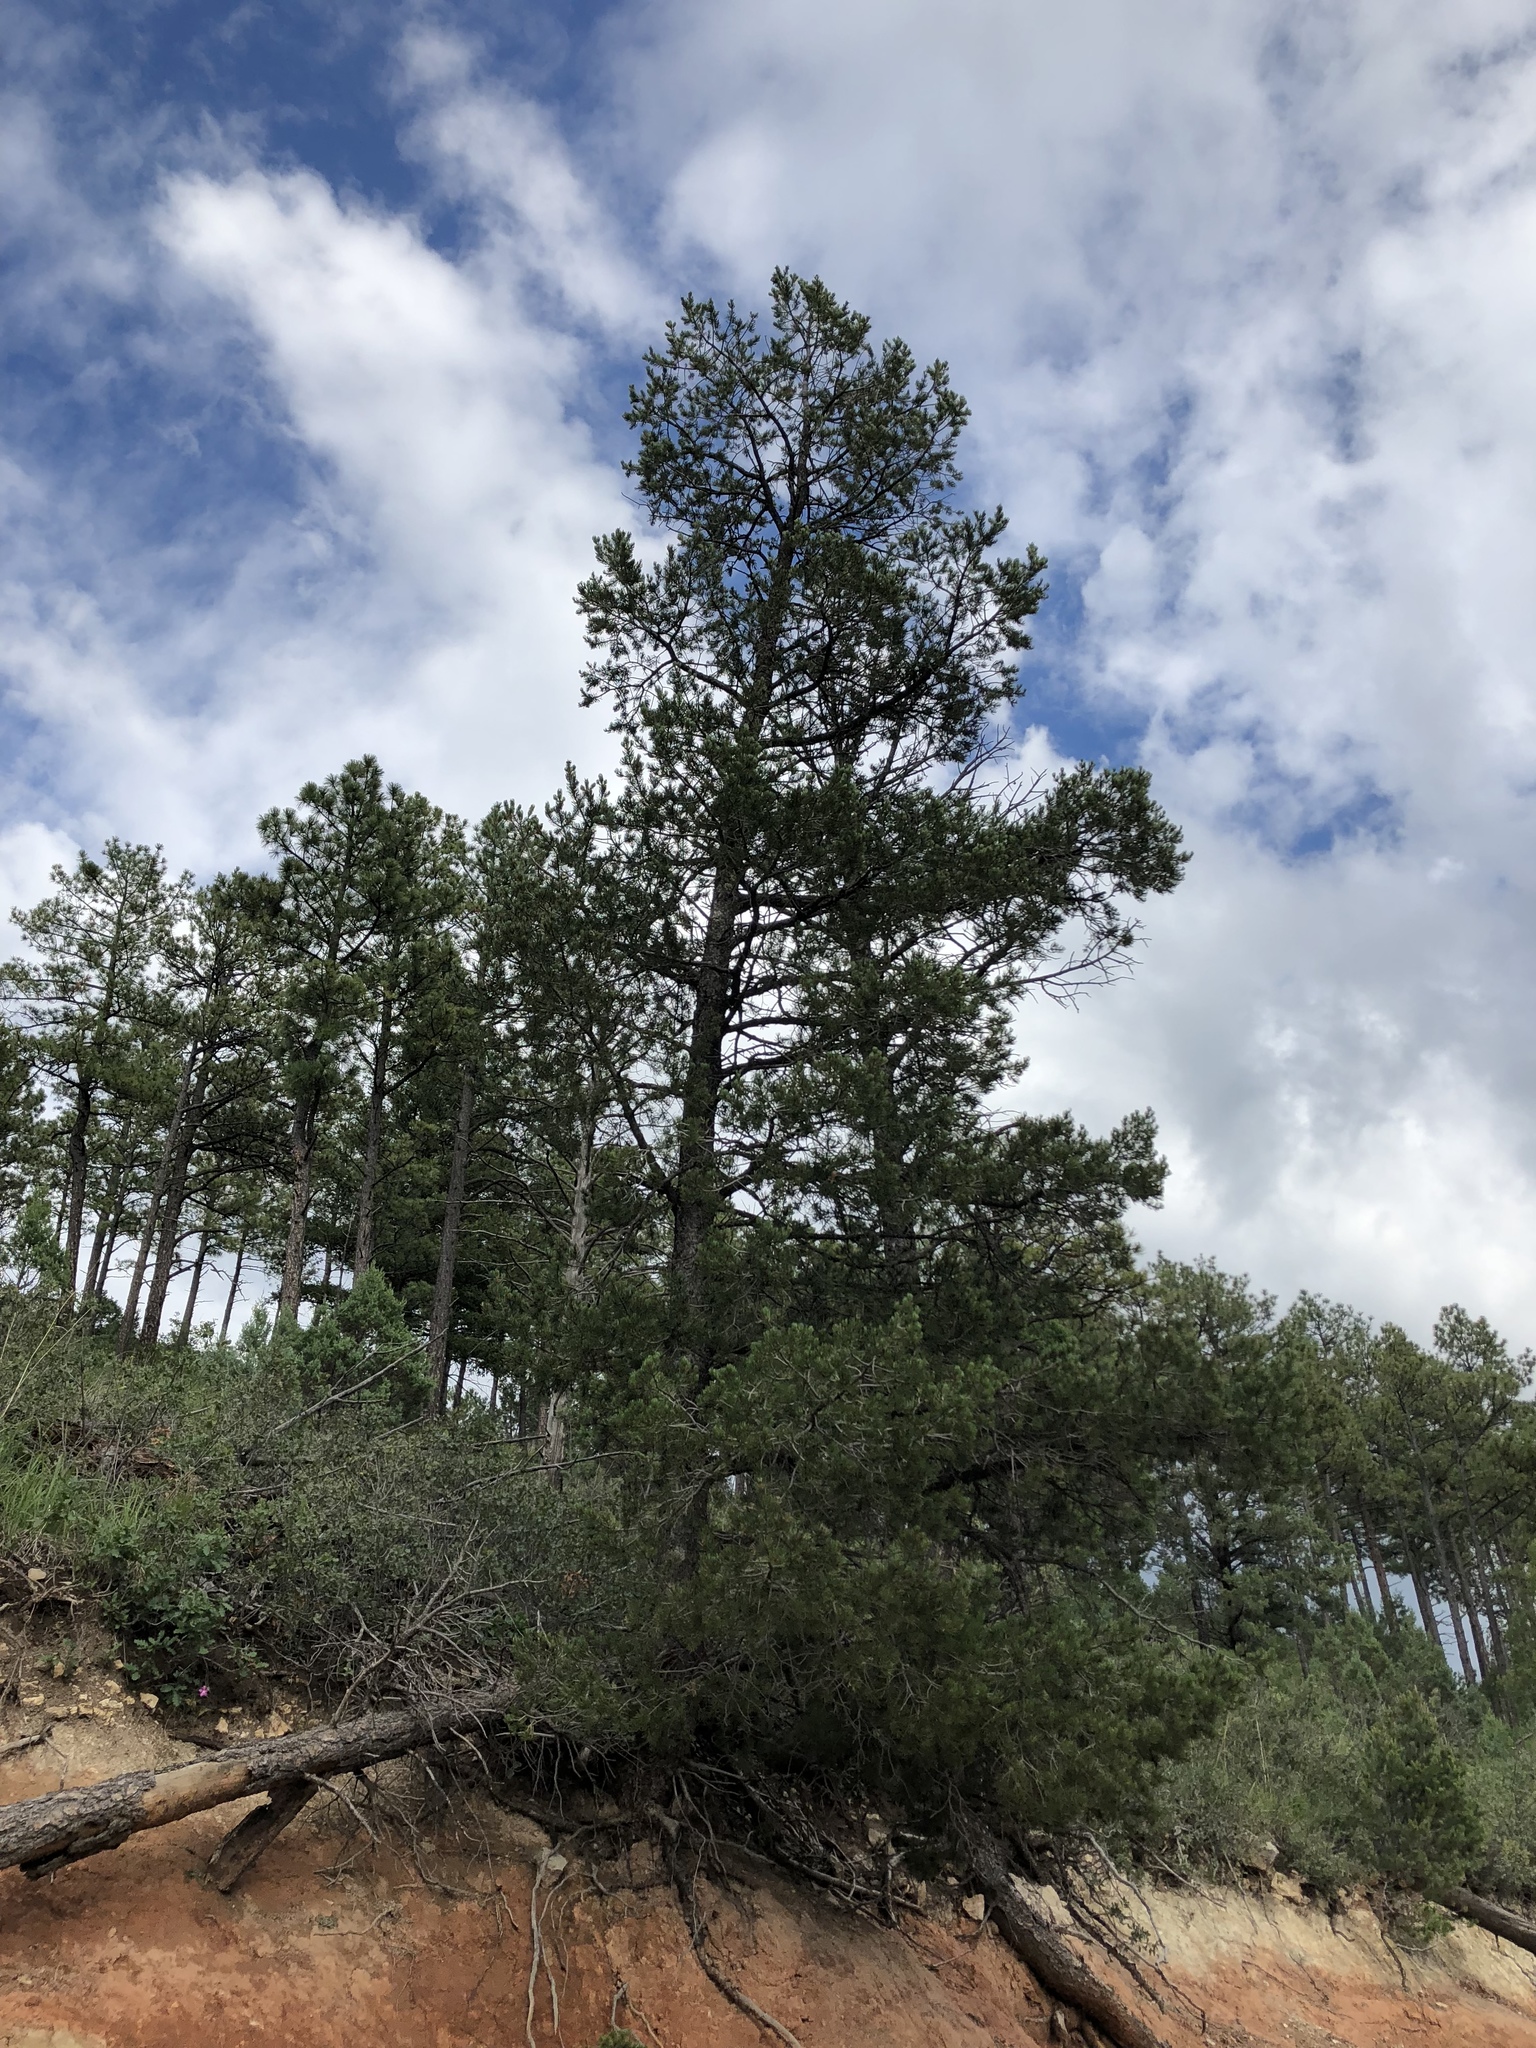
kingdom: Plantae
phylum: Tracheophyta
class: Pinopsida
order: Pinales
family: Pinaceae
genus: Pinus
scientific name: Pinus edulis
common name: Colorado pinyon
